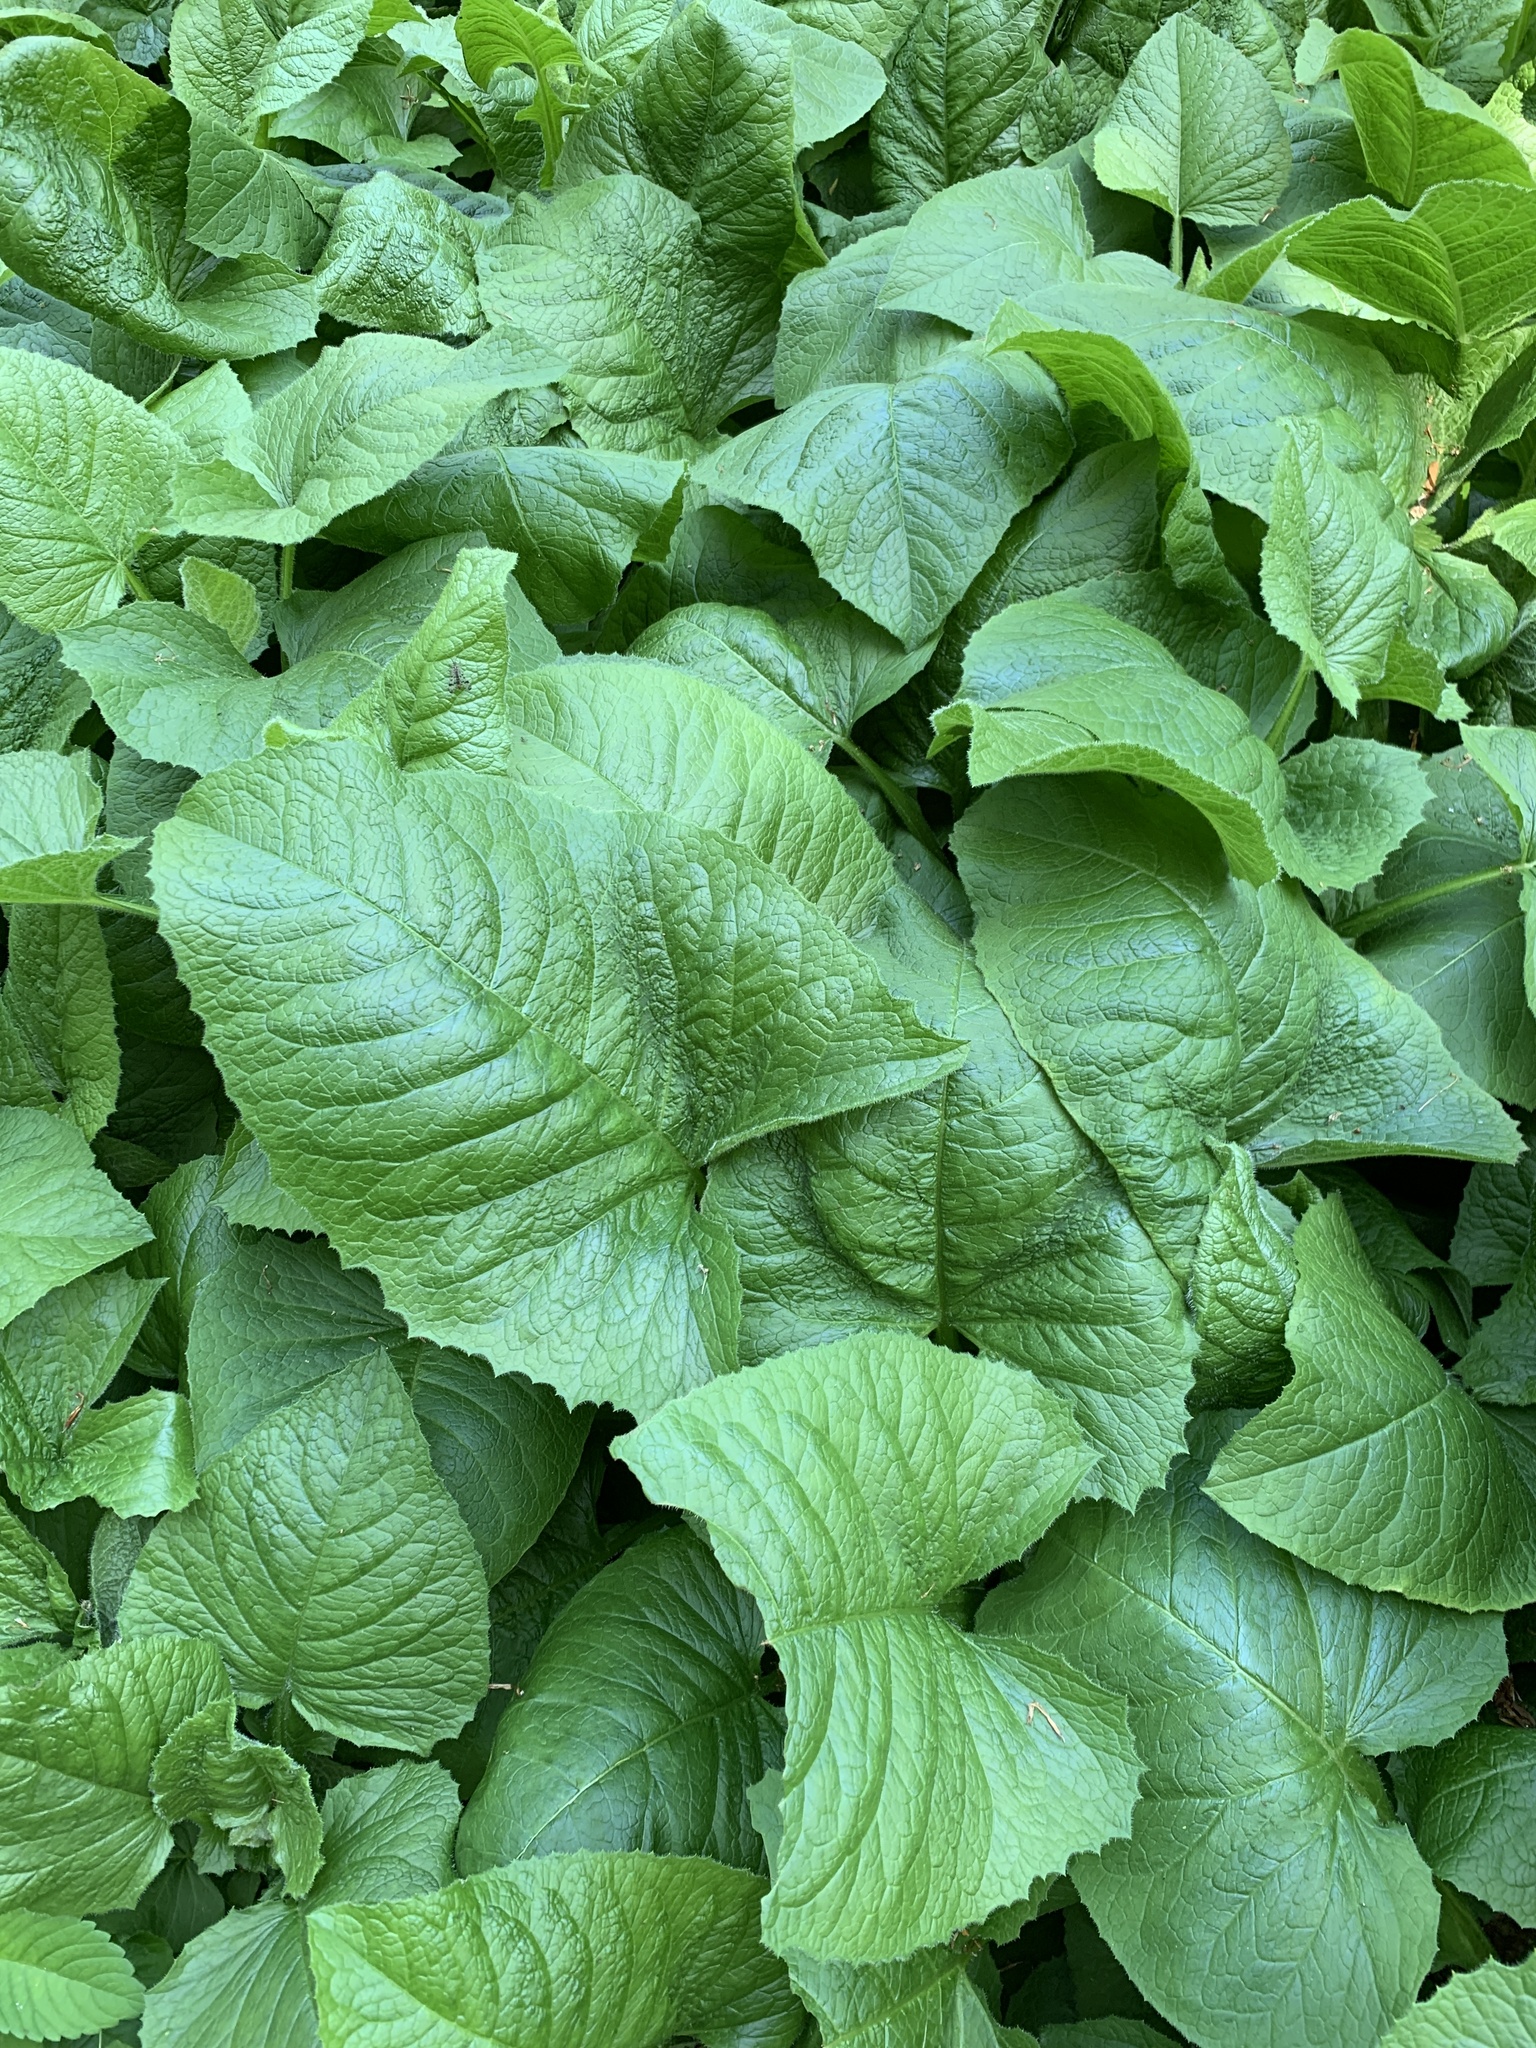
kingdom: Plantae
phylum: Tracheophyta
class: Magnoliopsida
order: Asterales
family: Asteraceae
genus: Telekia
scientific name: Telekia speciosa
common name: Yellow oxeye
